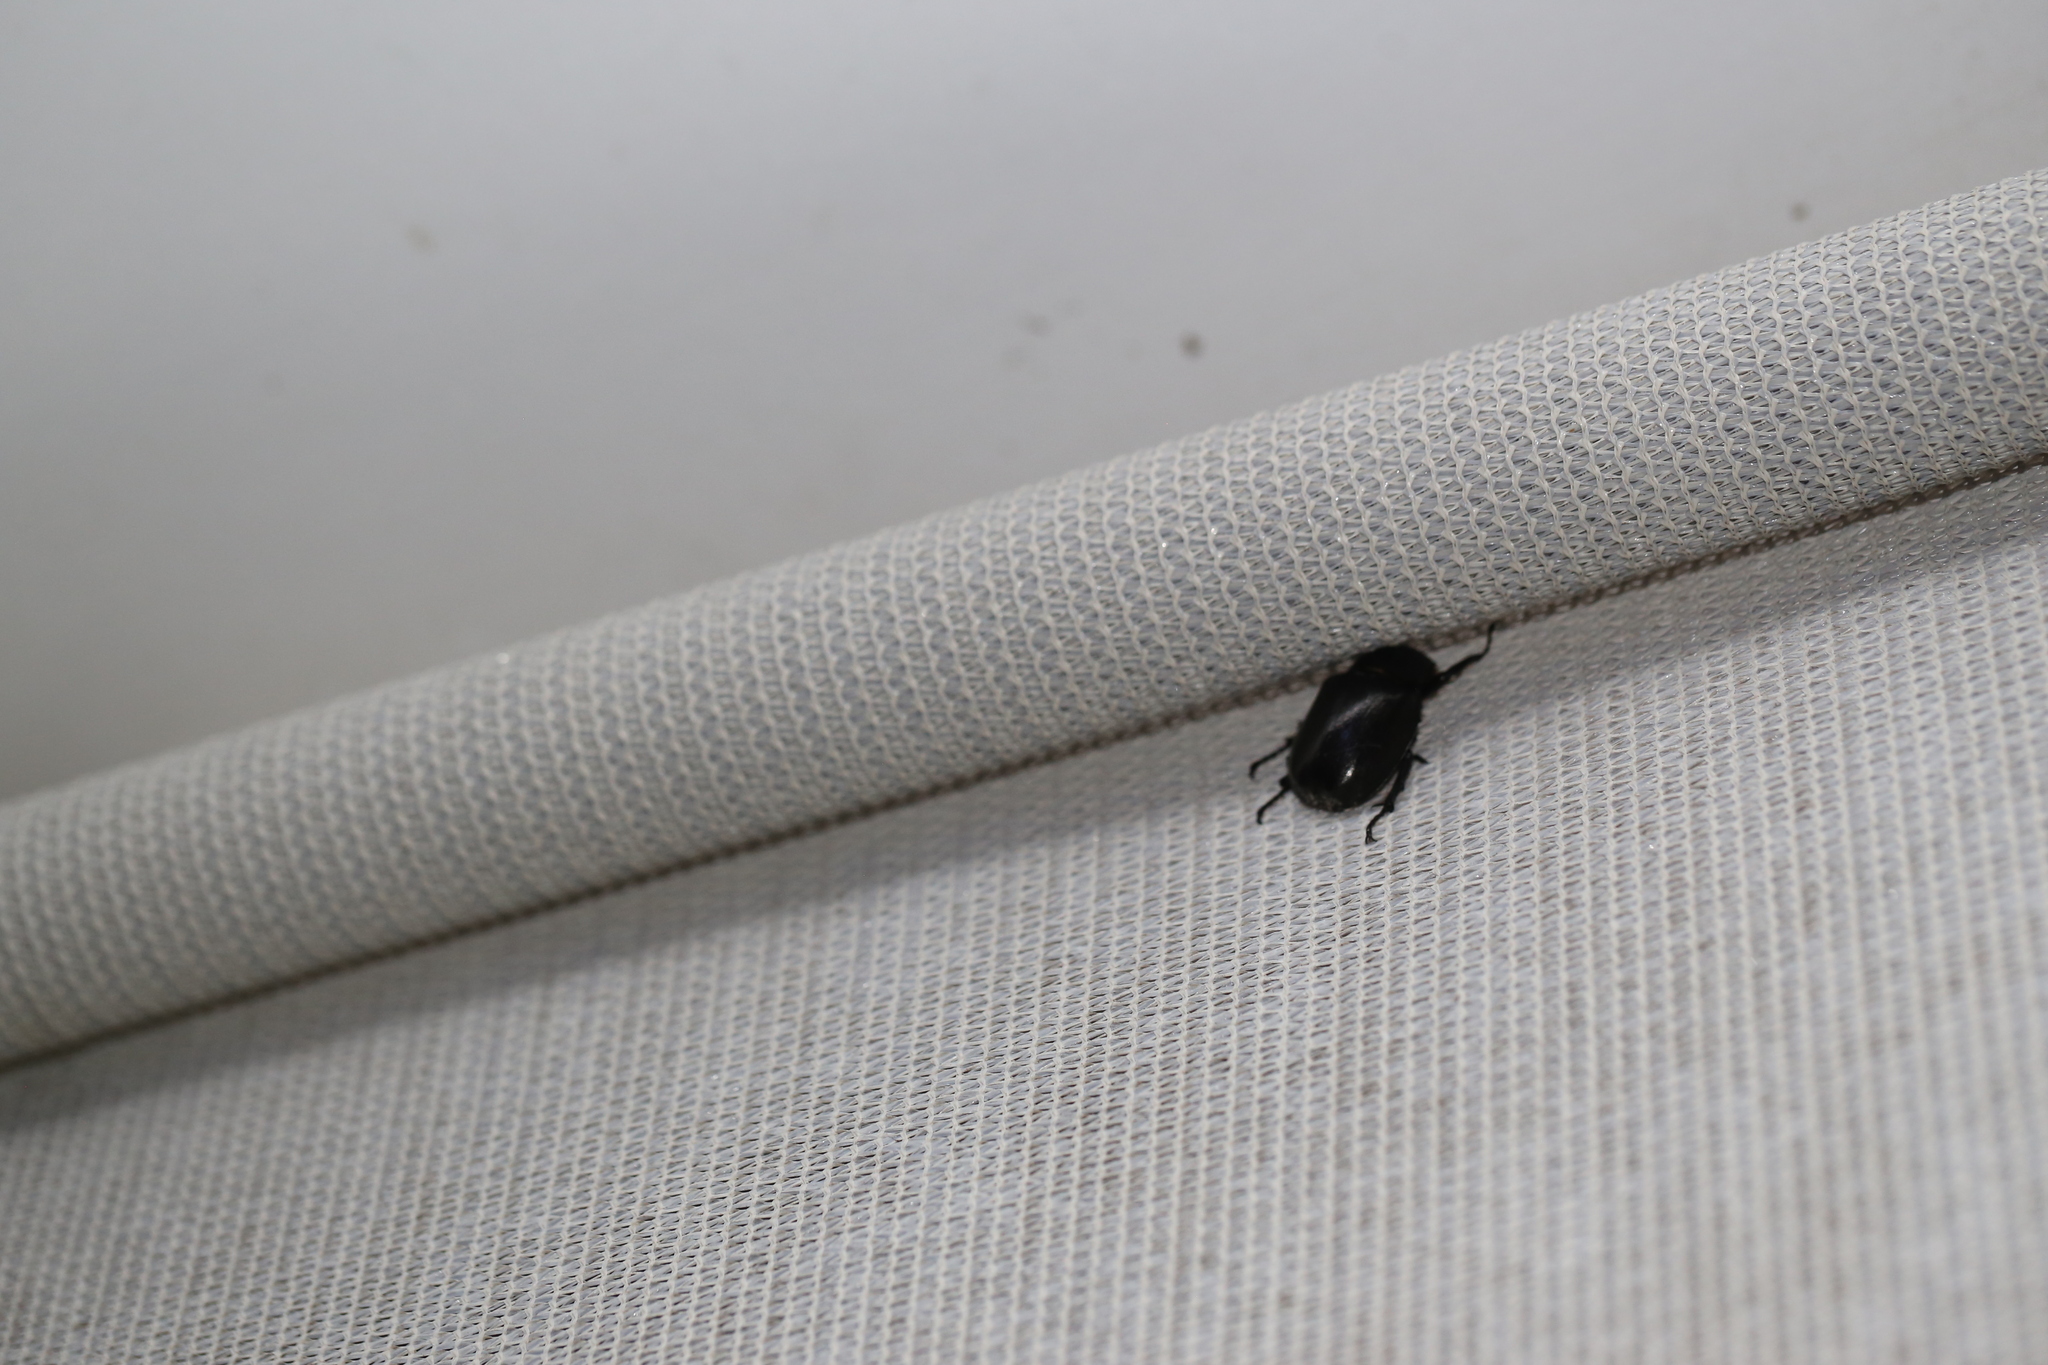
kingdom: Animalia
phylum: Arthropoda
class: Insecta
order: Coleoptera
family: Scarabaeidae
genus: Xylotrupes
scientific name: Xylotrupes australicus
